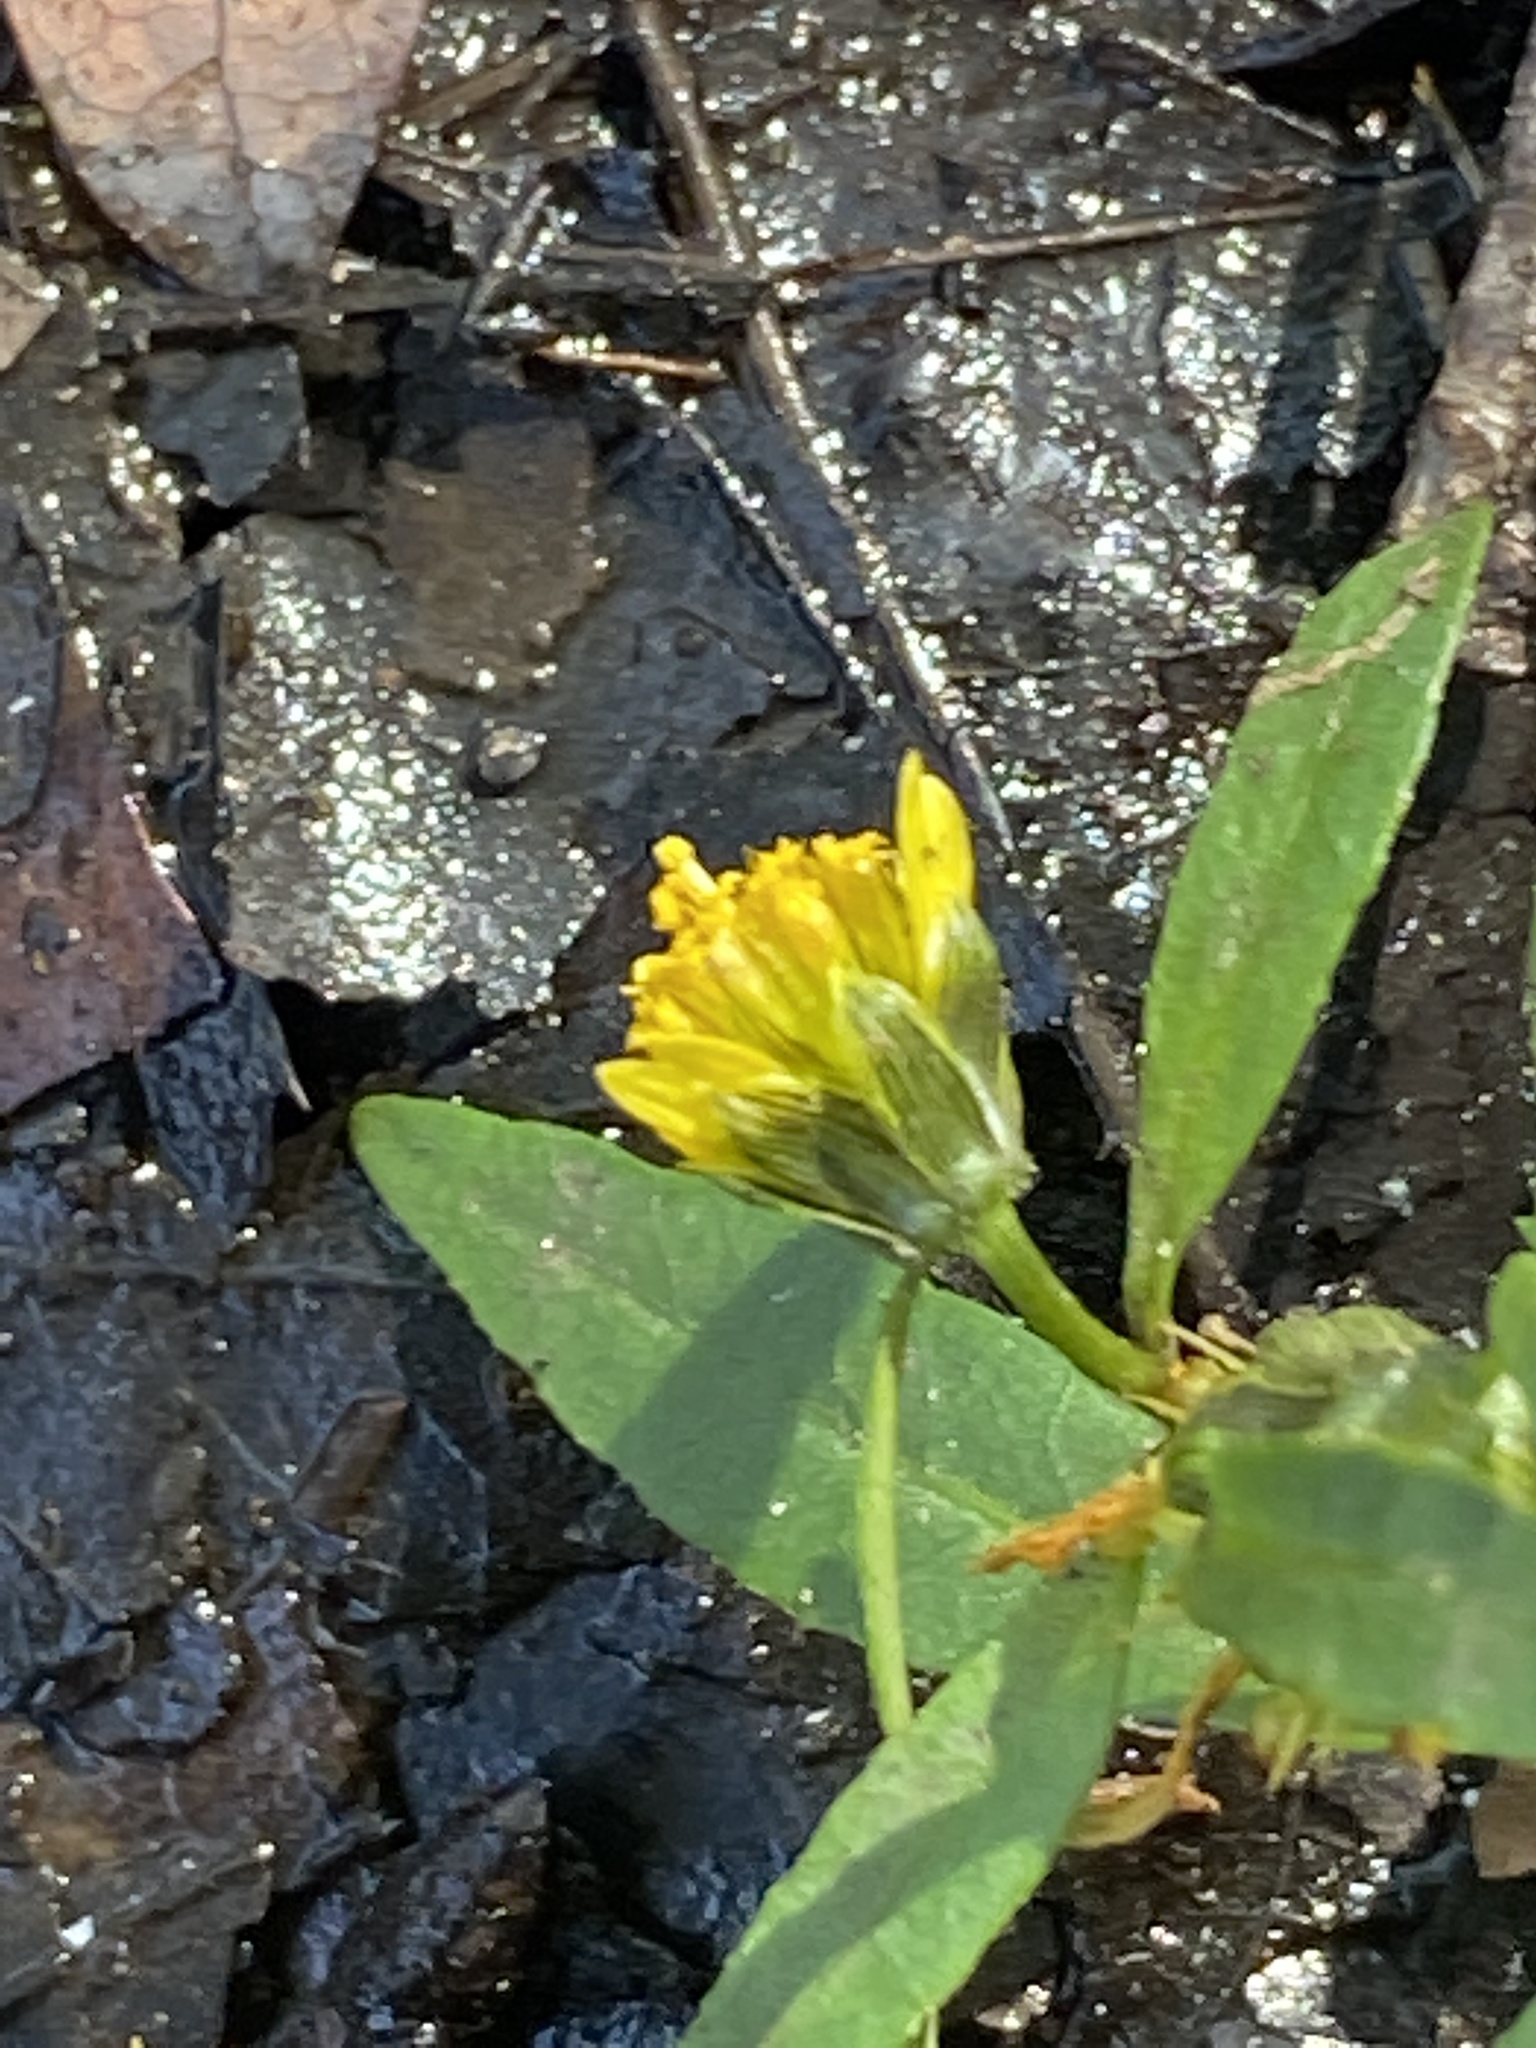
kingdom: Plantae
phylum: Tracheophyta
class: Magnoliopsida
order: Asterales
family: Asteraceae
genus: Bidens
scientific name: Bidens cernua
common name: Nodding bur-marigold
